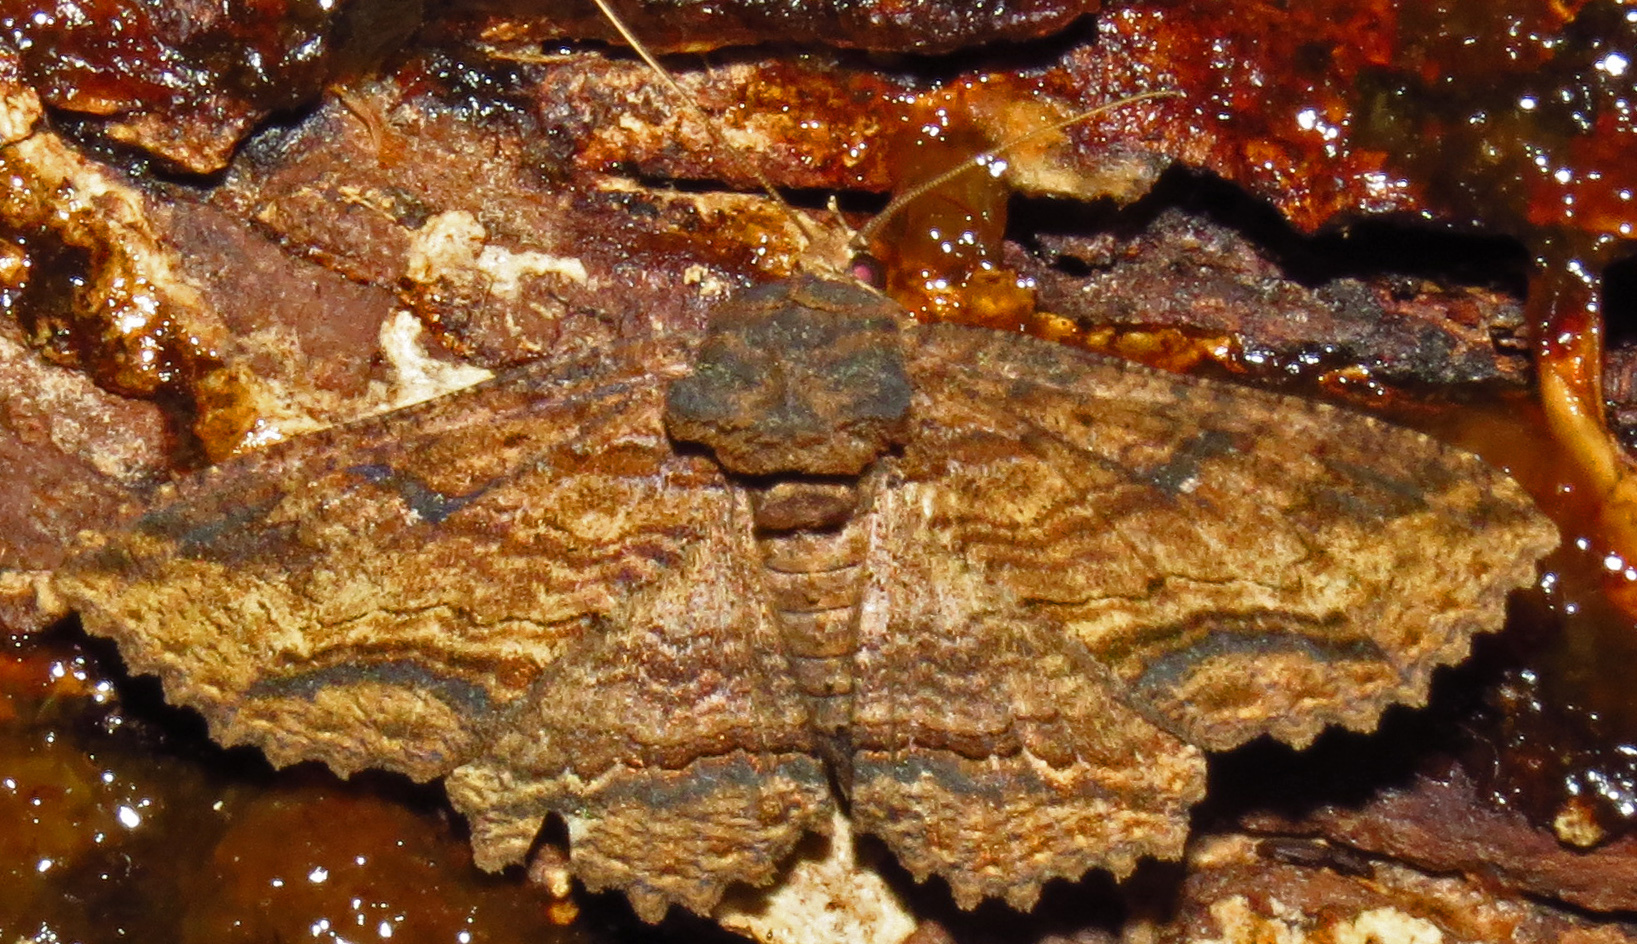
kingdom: Animalia
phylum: Arthropoda
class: Insecta
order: Lepidoptera
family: Erebidae
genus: Zale
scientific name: Zale lunata
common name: Lunate zale moth
